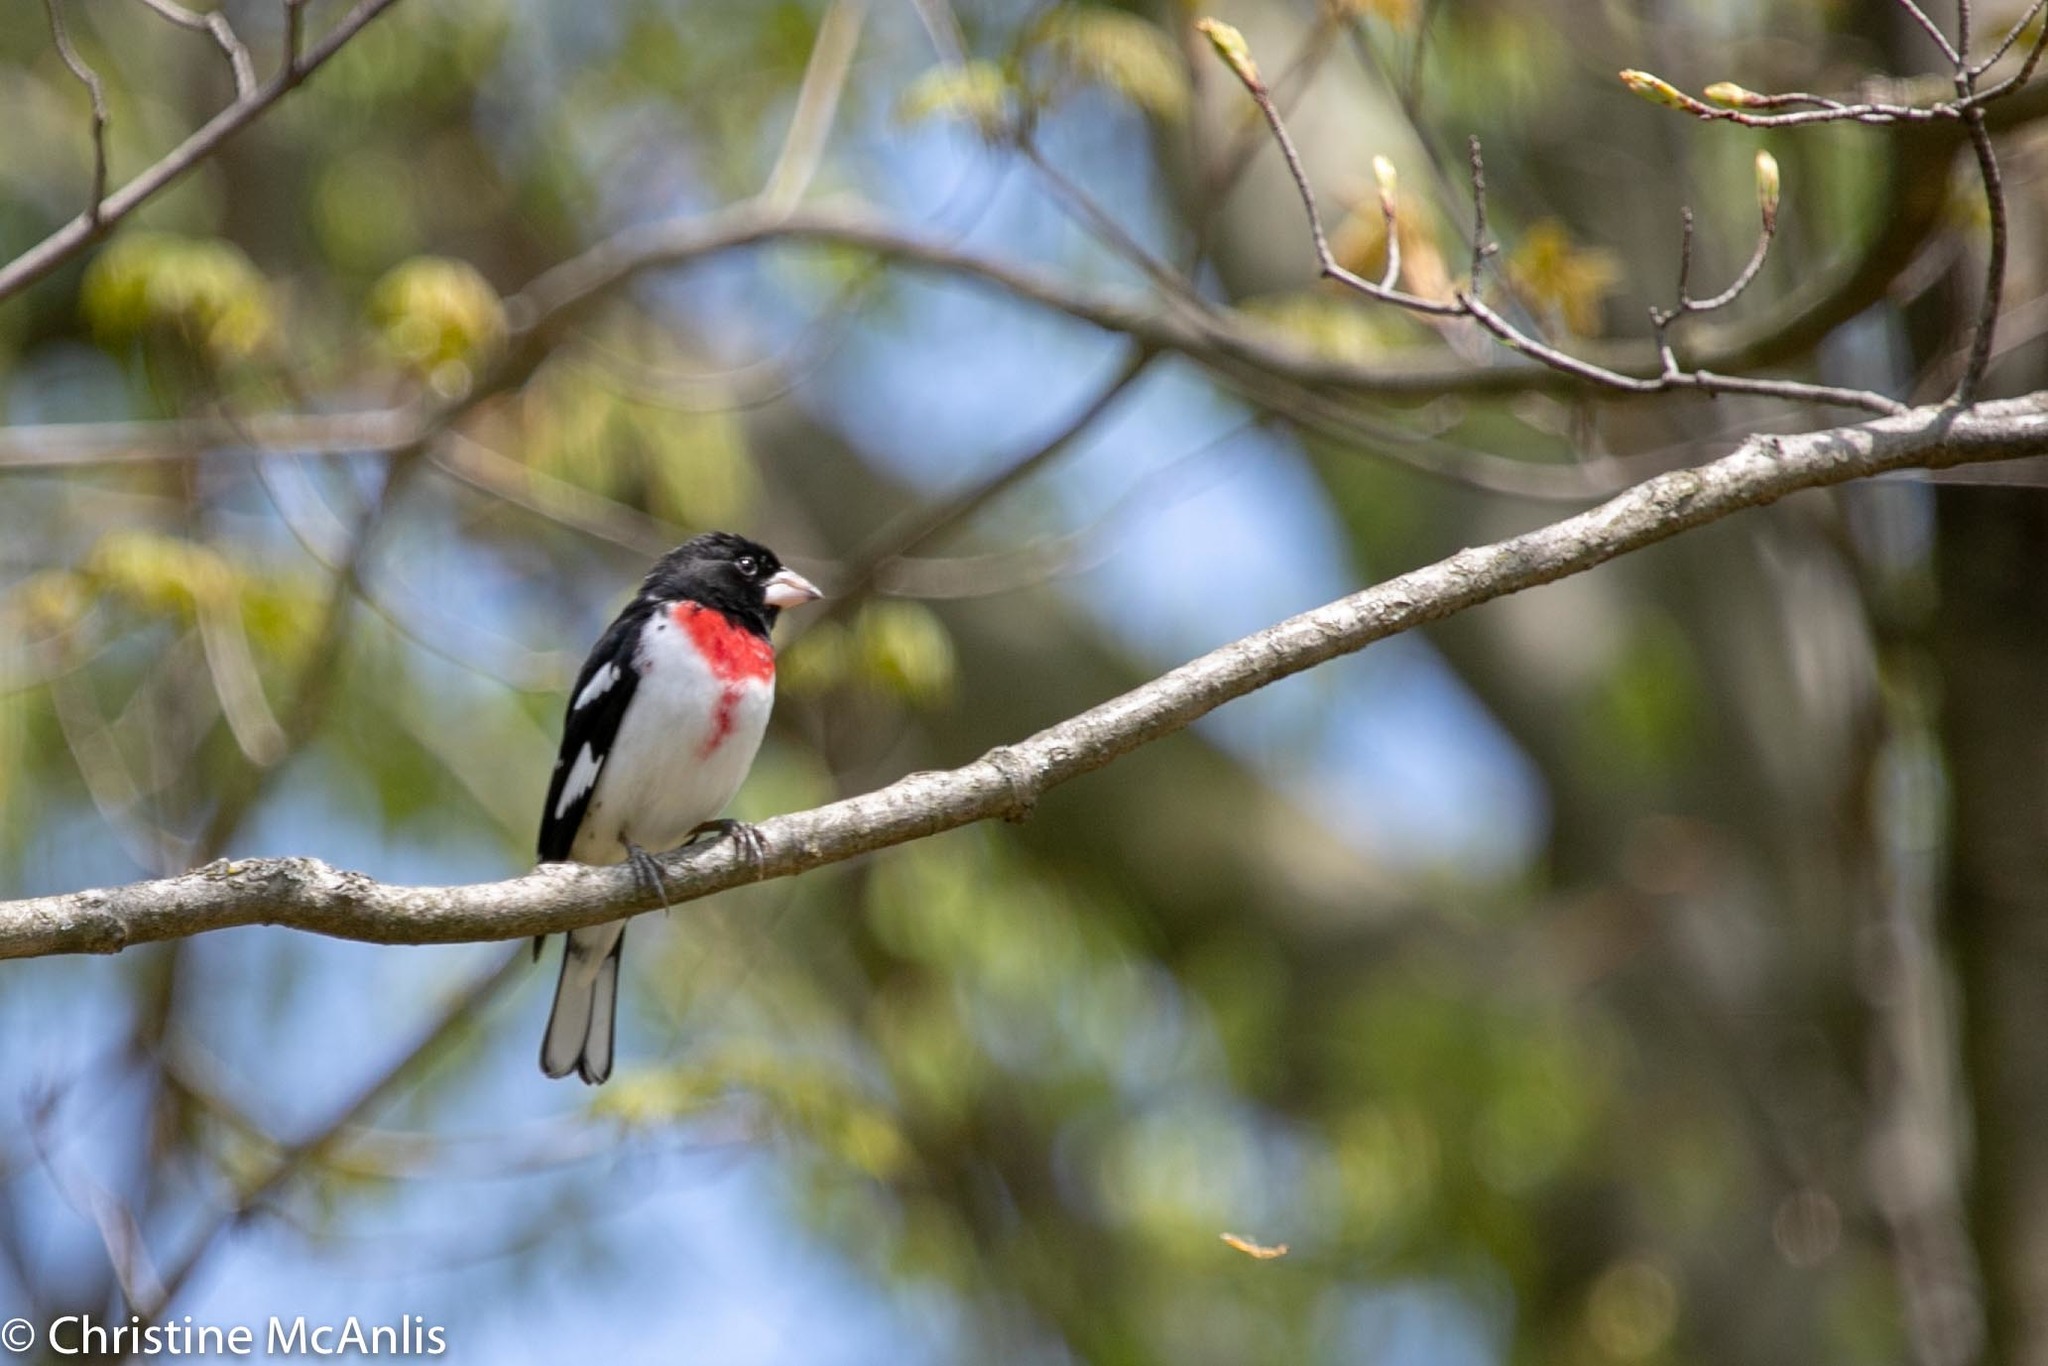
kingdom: Animalia
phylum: Chordata
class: Aves
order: Passeriformes
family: Cardinalidae
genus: Pheucticus
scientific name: Pheucticus ludovicianus
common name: Rose-breasted grosbeak
